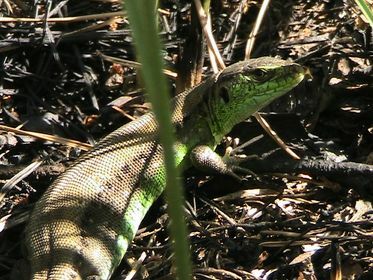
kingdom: Animalia
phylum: Chordata
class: Squamata
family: Lacertidae
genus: Lacerta
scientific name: Lacerta agilis
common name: Sand lizard
